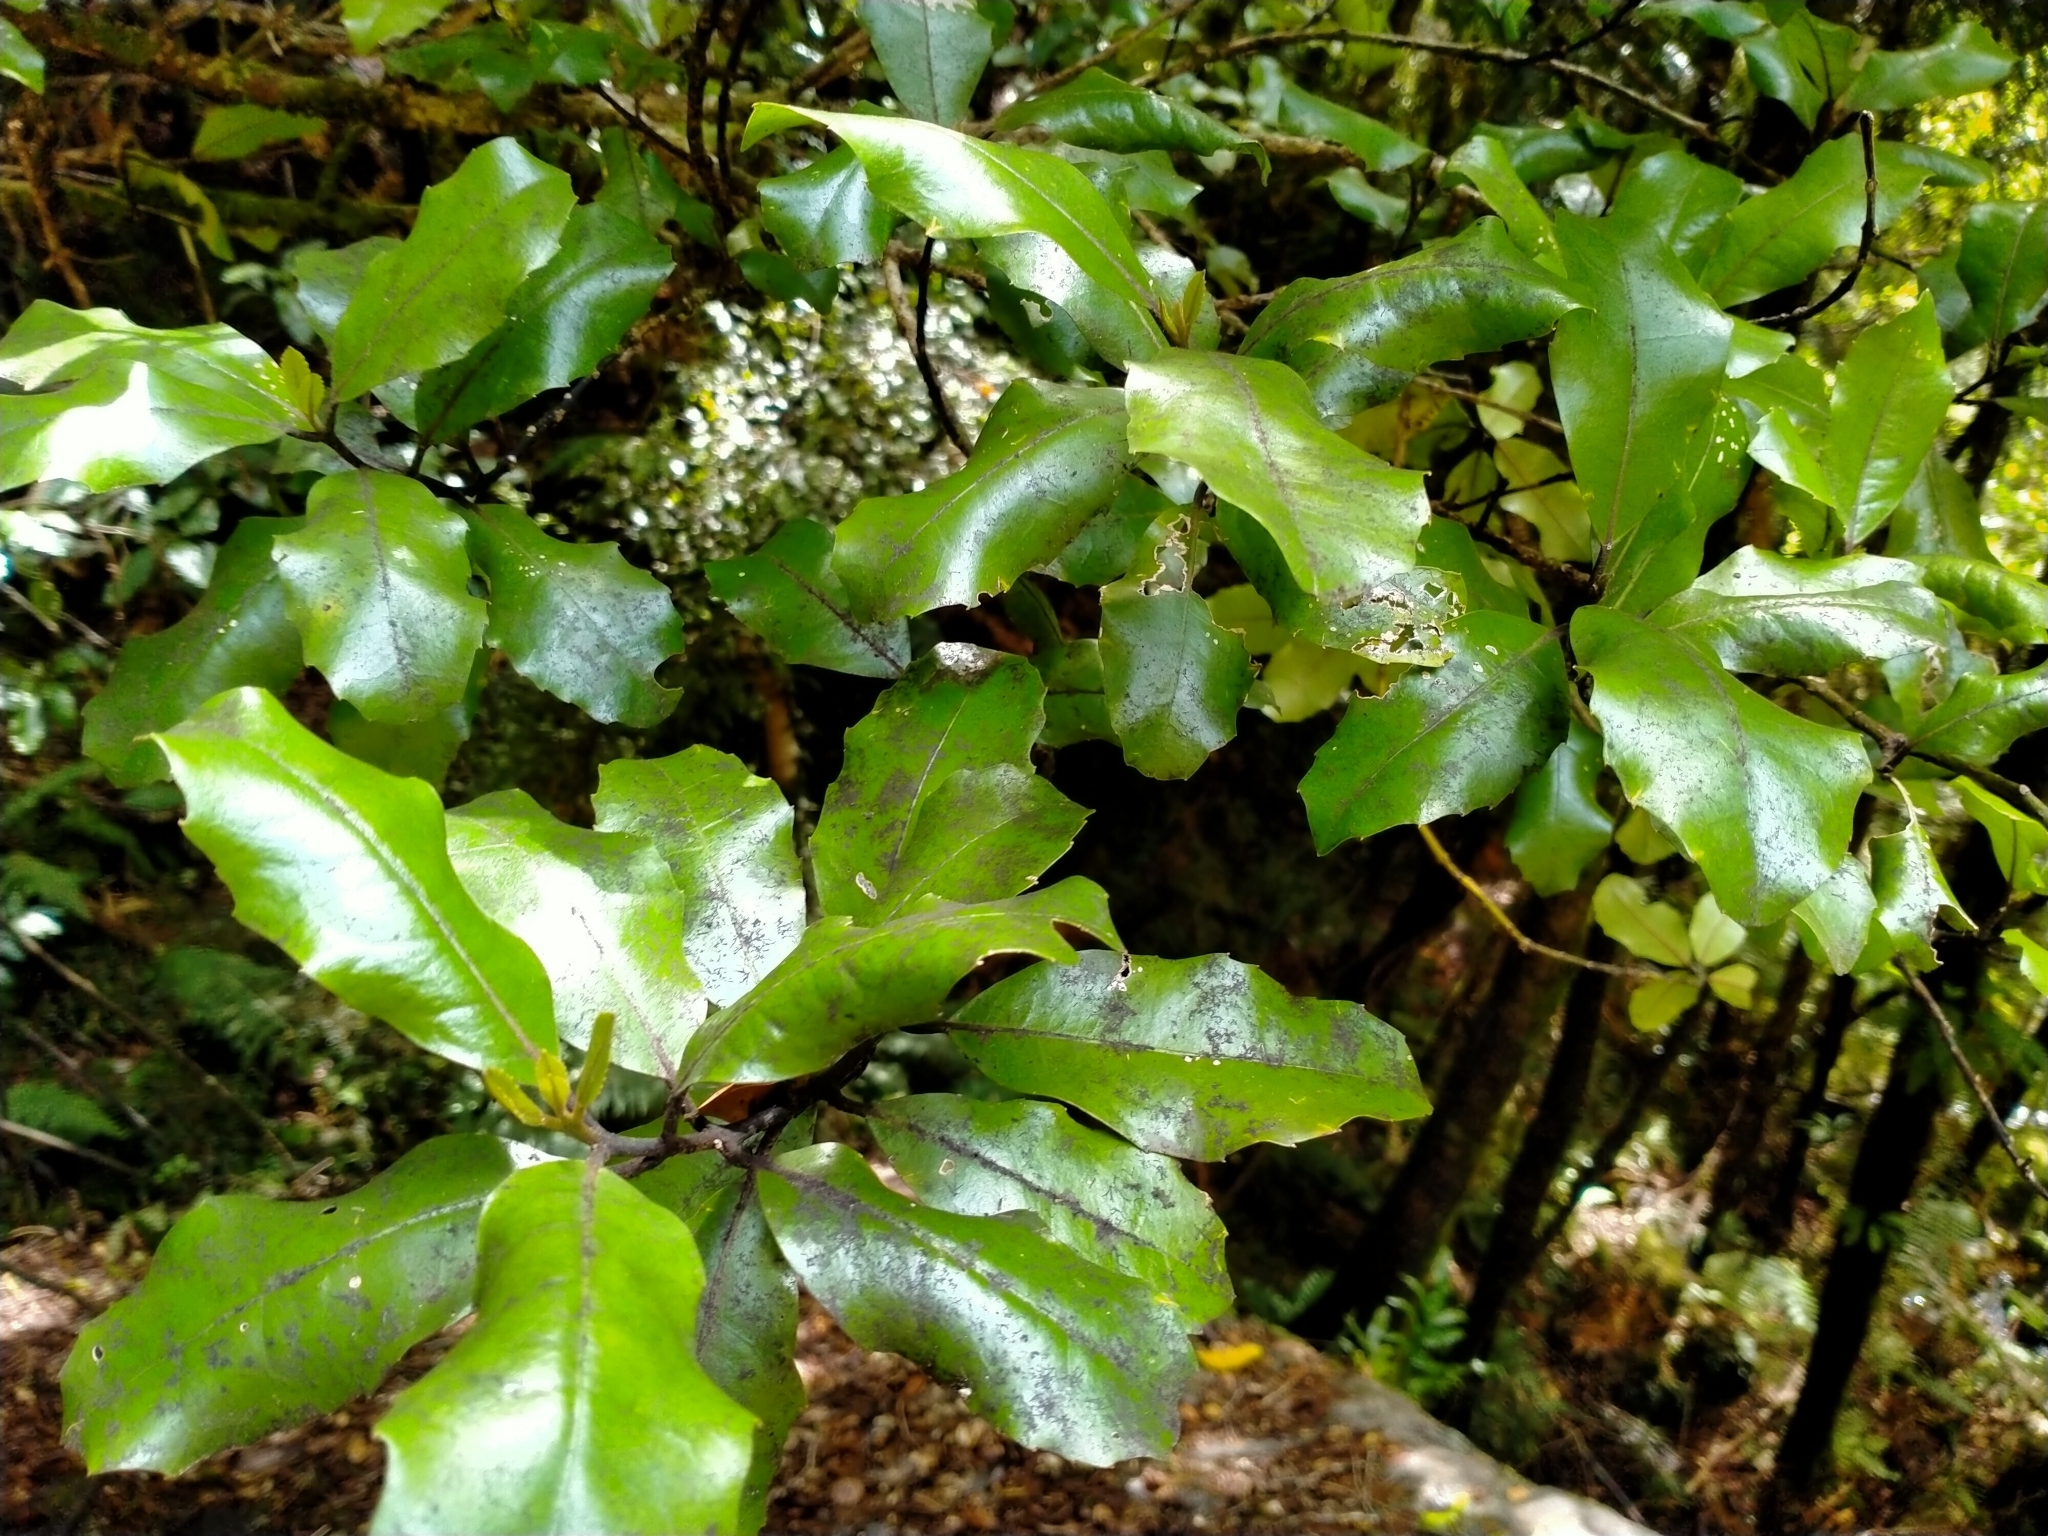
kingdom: Plantae
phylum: Tracheophyta
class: Magnoliopsida
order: Laurales
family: Monimiaceae
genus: Hedycarya
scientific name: Hedycarya arborea
